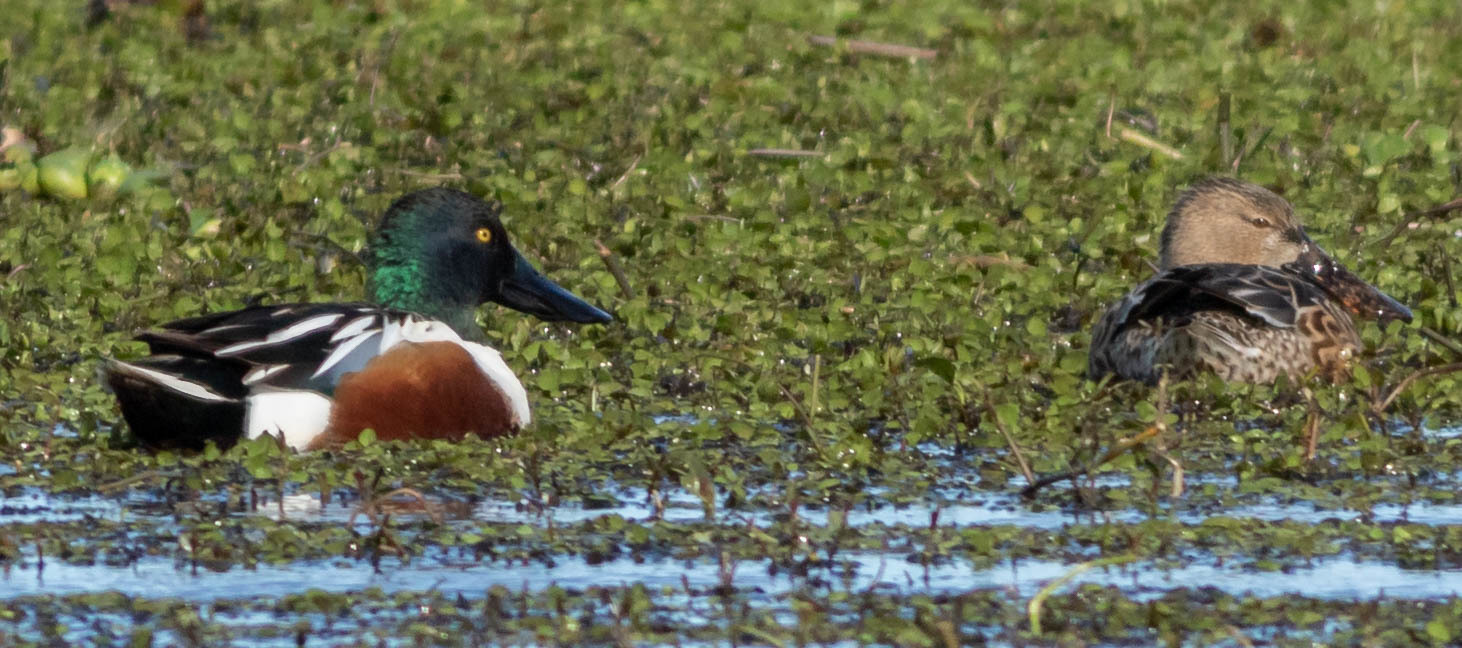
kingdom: Animalia
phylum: Chordata
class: Aves
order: Anseriformes
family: Anatidae
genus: Spatula
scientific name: Spatula clypeata
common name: Northern shoveler
